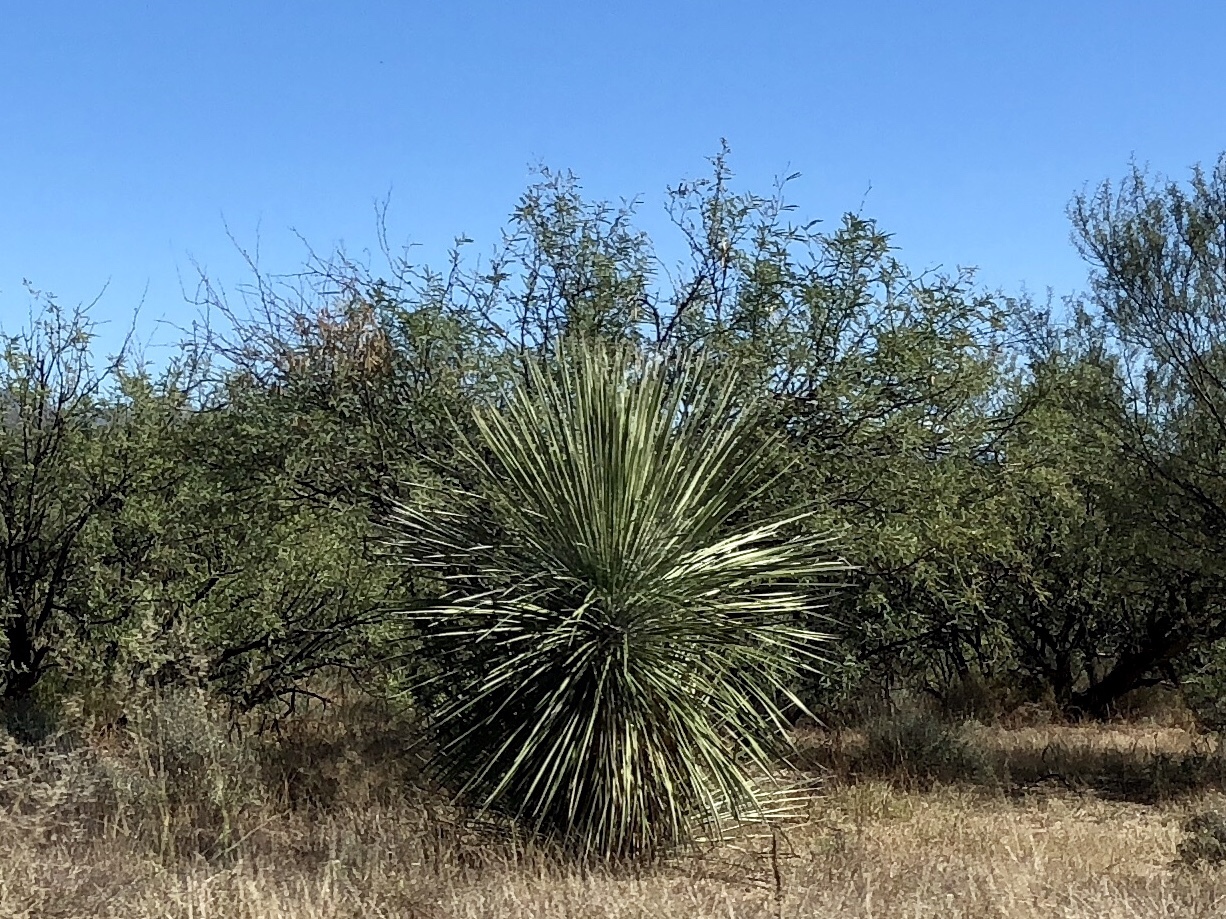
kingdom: Plantae
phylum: Tracheophyta
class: Liliopsida
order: Asparagales
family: Asparagaceae
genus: Yucca
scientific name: Yucca elata
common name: Palmella
